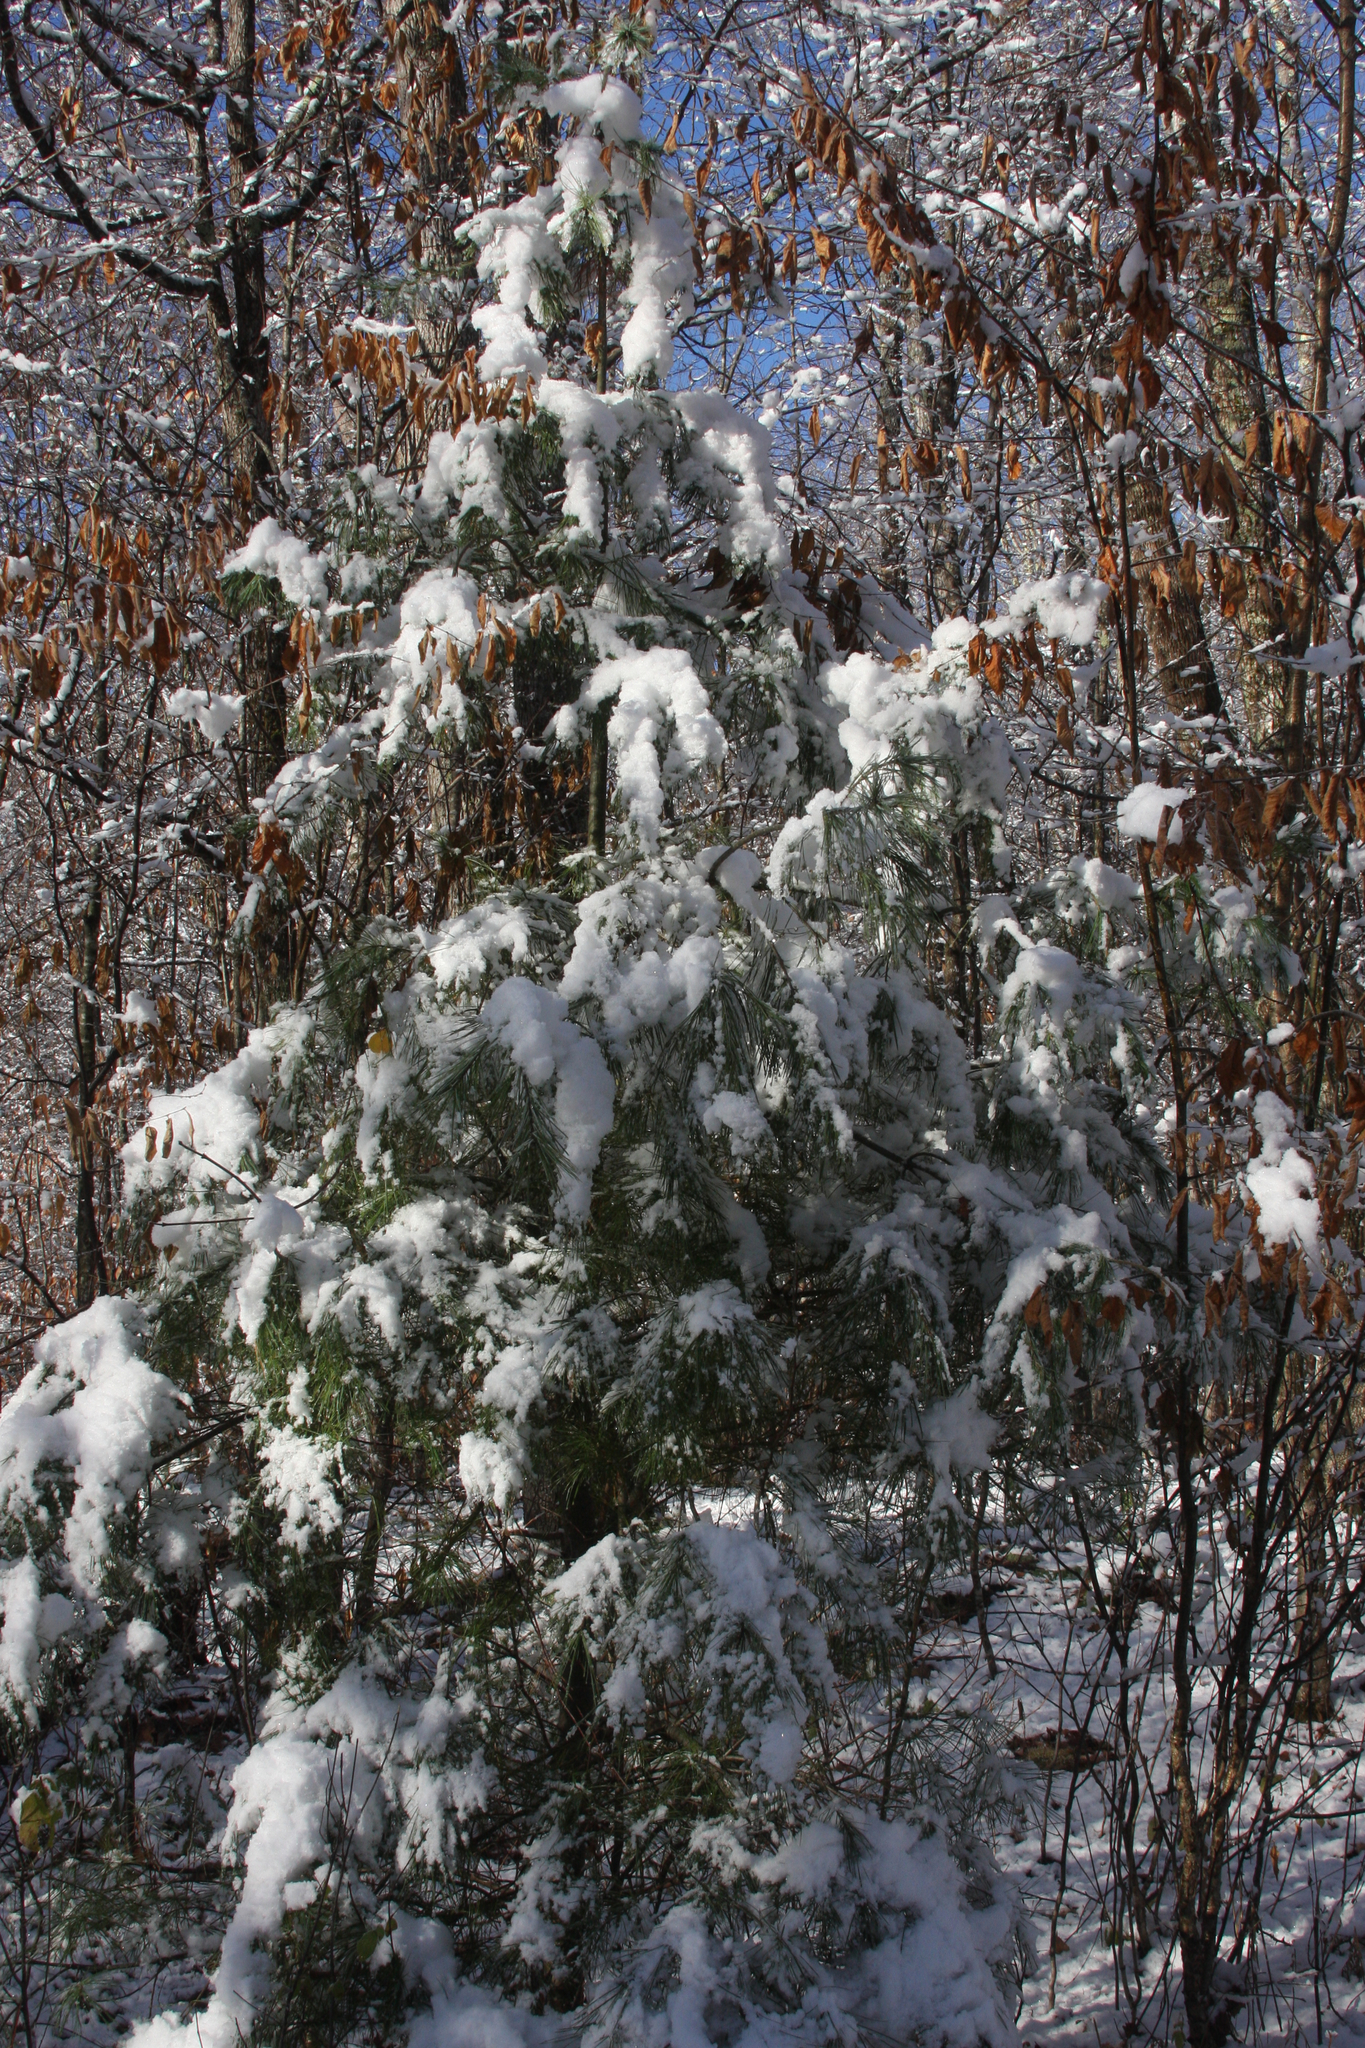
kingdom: Plantae
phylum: Tracheophyta
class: Pinopsida
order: Pinales
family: Pinaceae
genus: Pinus
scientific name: Pinus strobus
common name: Weymouth pine
